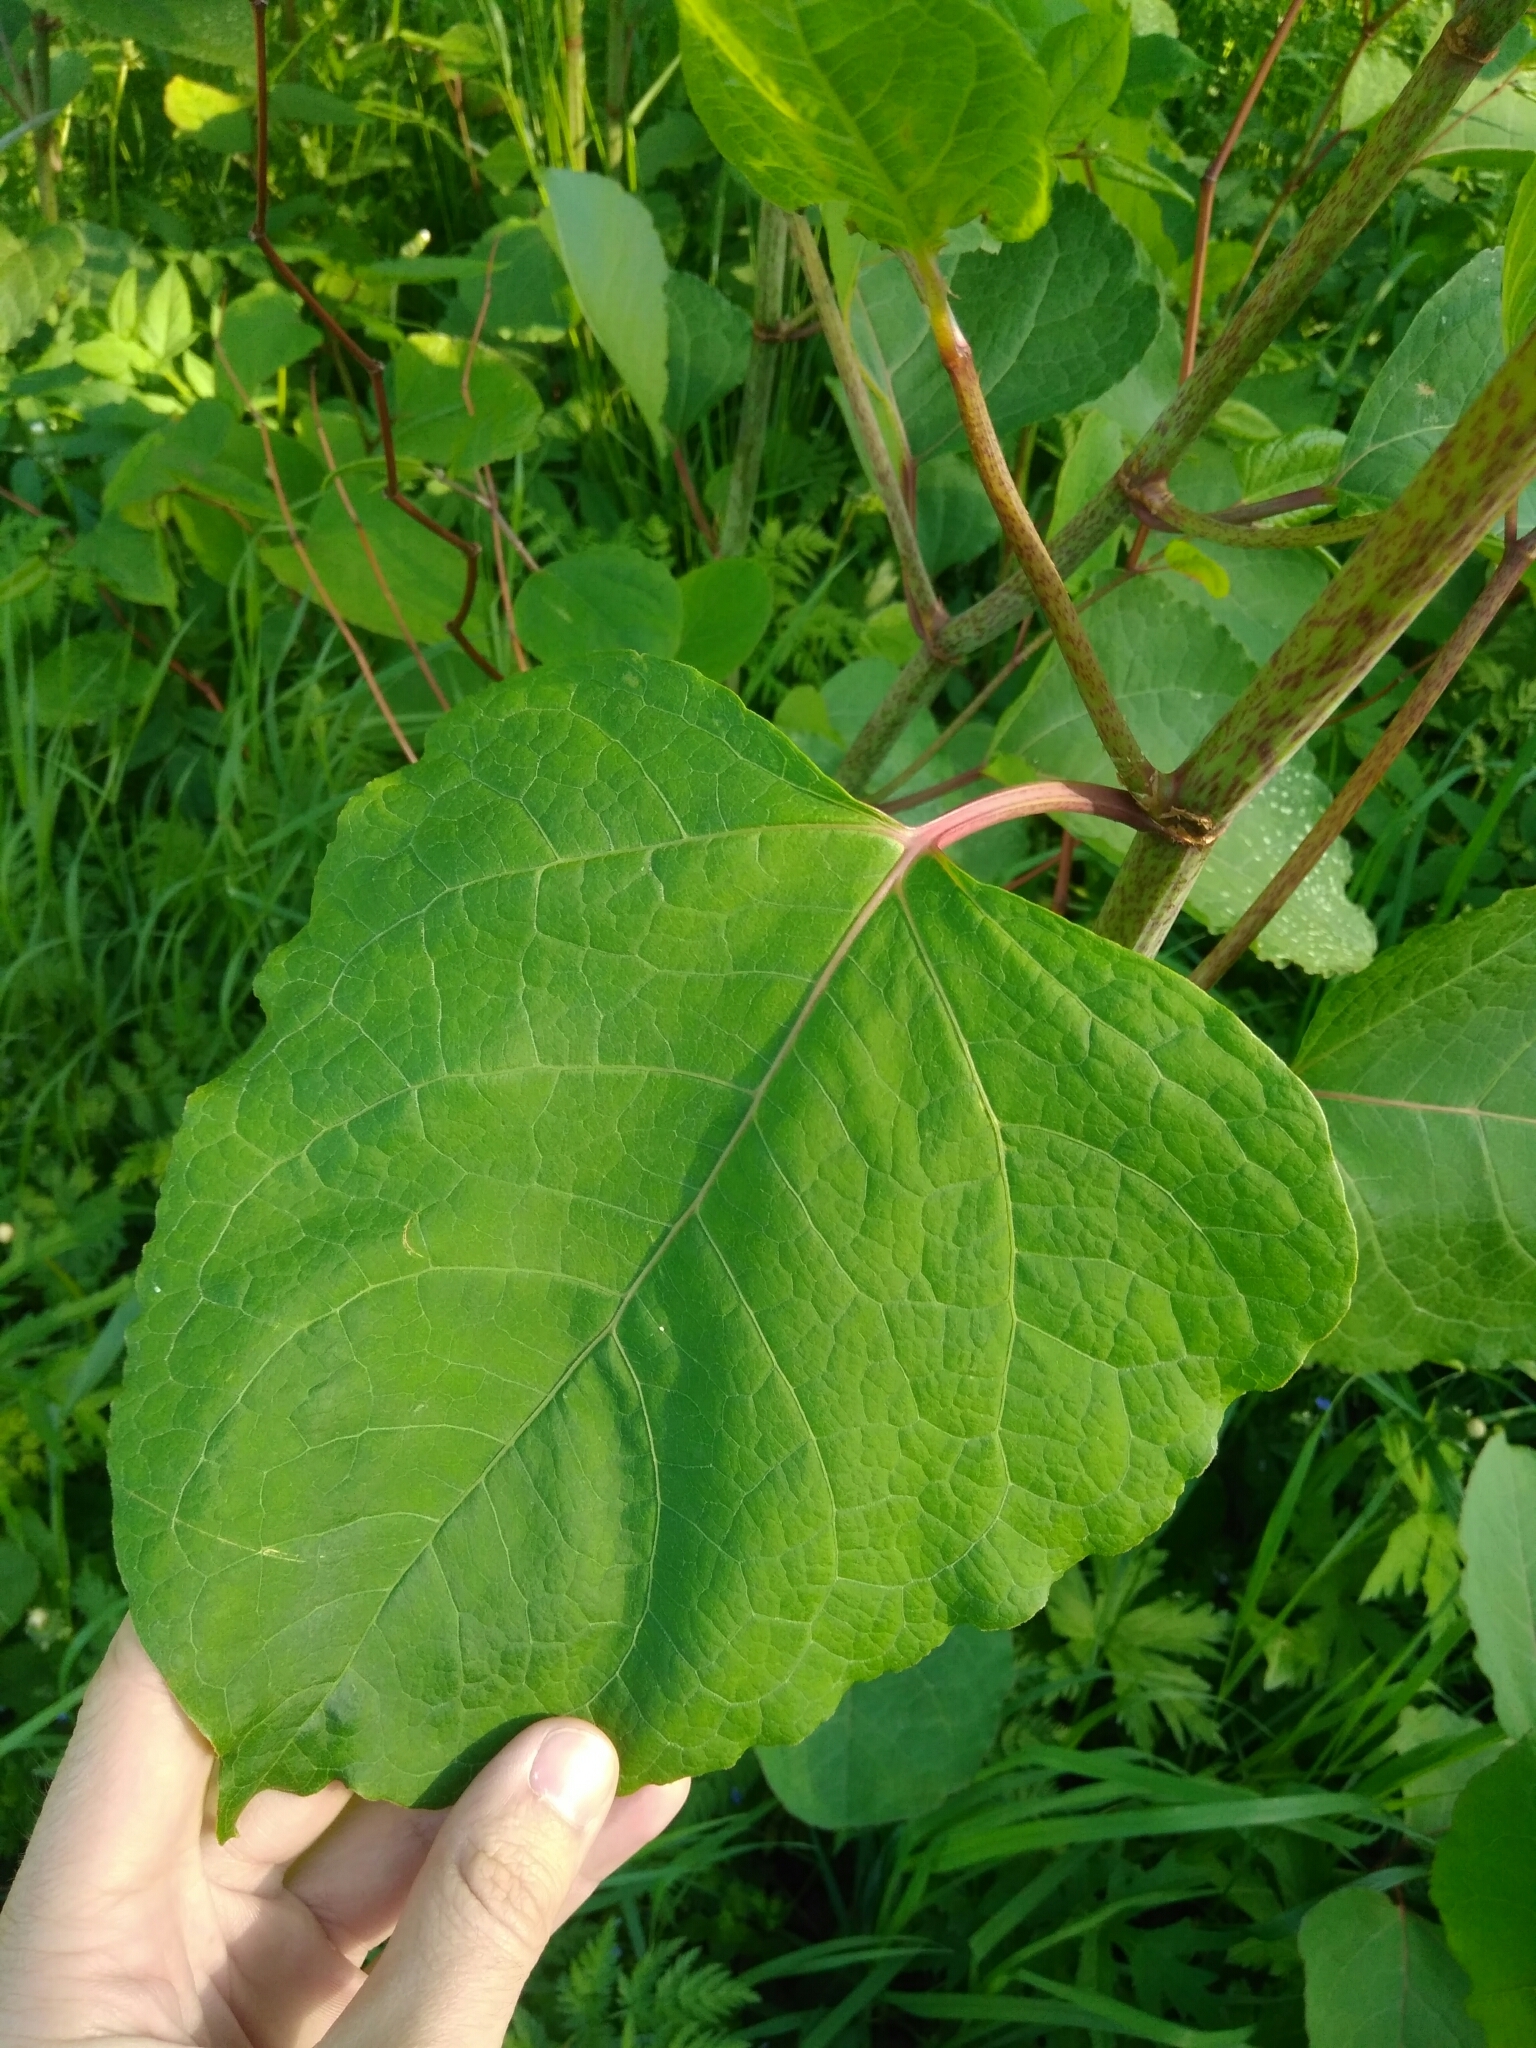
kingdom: Plantae
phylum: Tracheophyta
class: Magnoliopsida
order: Caryophyllales
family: Polygonaceae
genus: Reynoutria
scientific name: Reynoutria bohemica
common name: Bohemian knotweed
